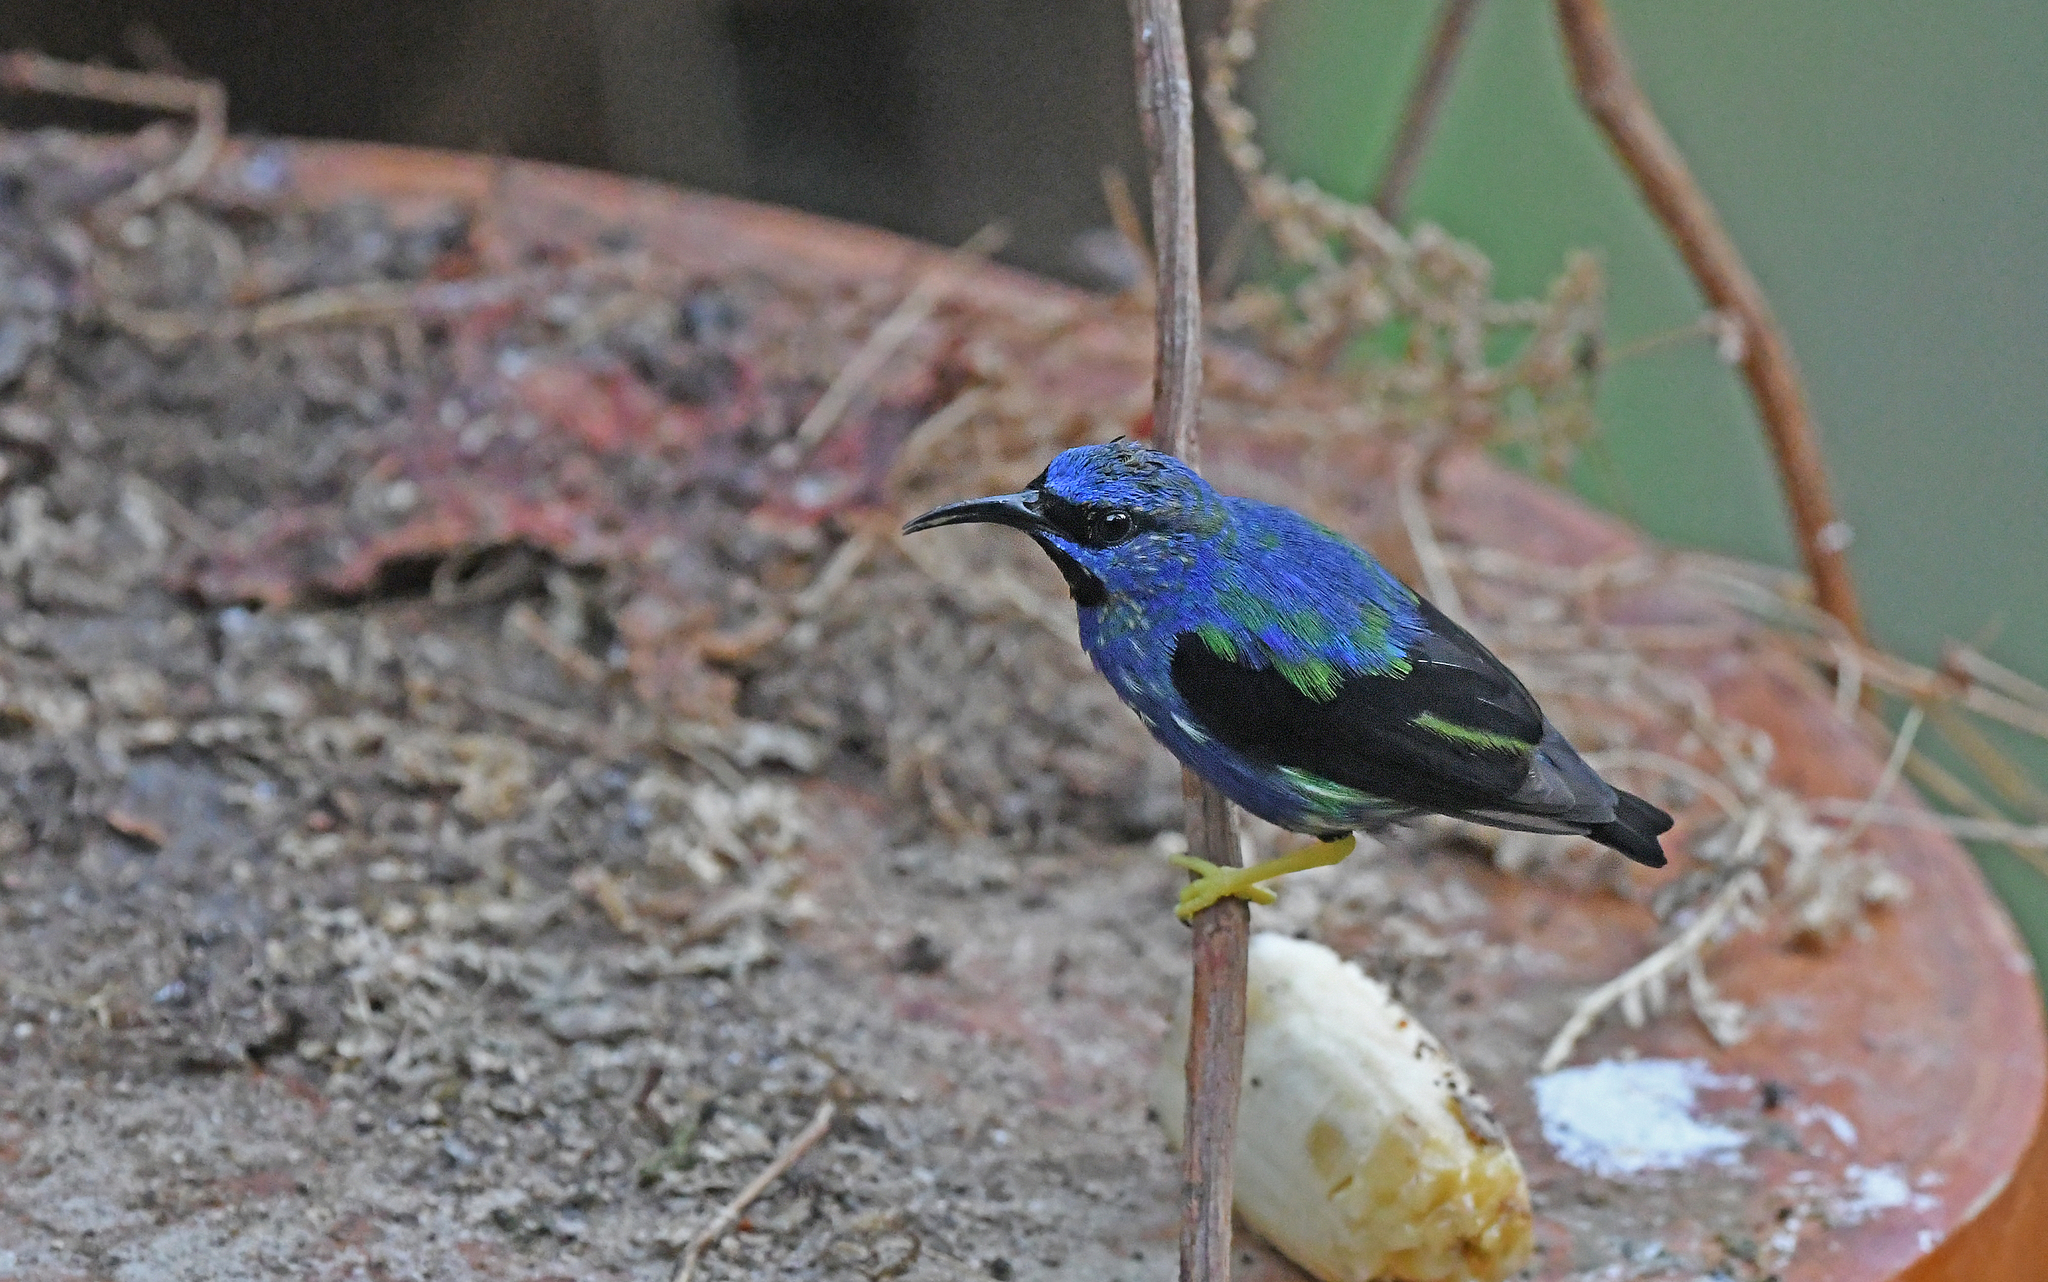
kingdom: Animalia
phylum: Chordata
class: Aves
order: Passeriformes
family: Thraupidae
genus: Cyanerpes
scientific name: Cyanerpes caeruleus
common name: Purple honeycreeper
